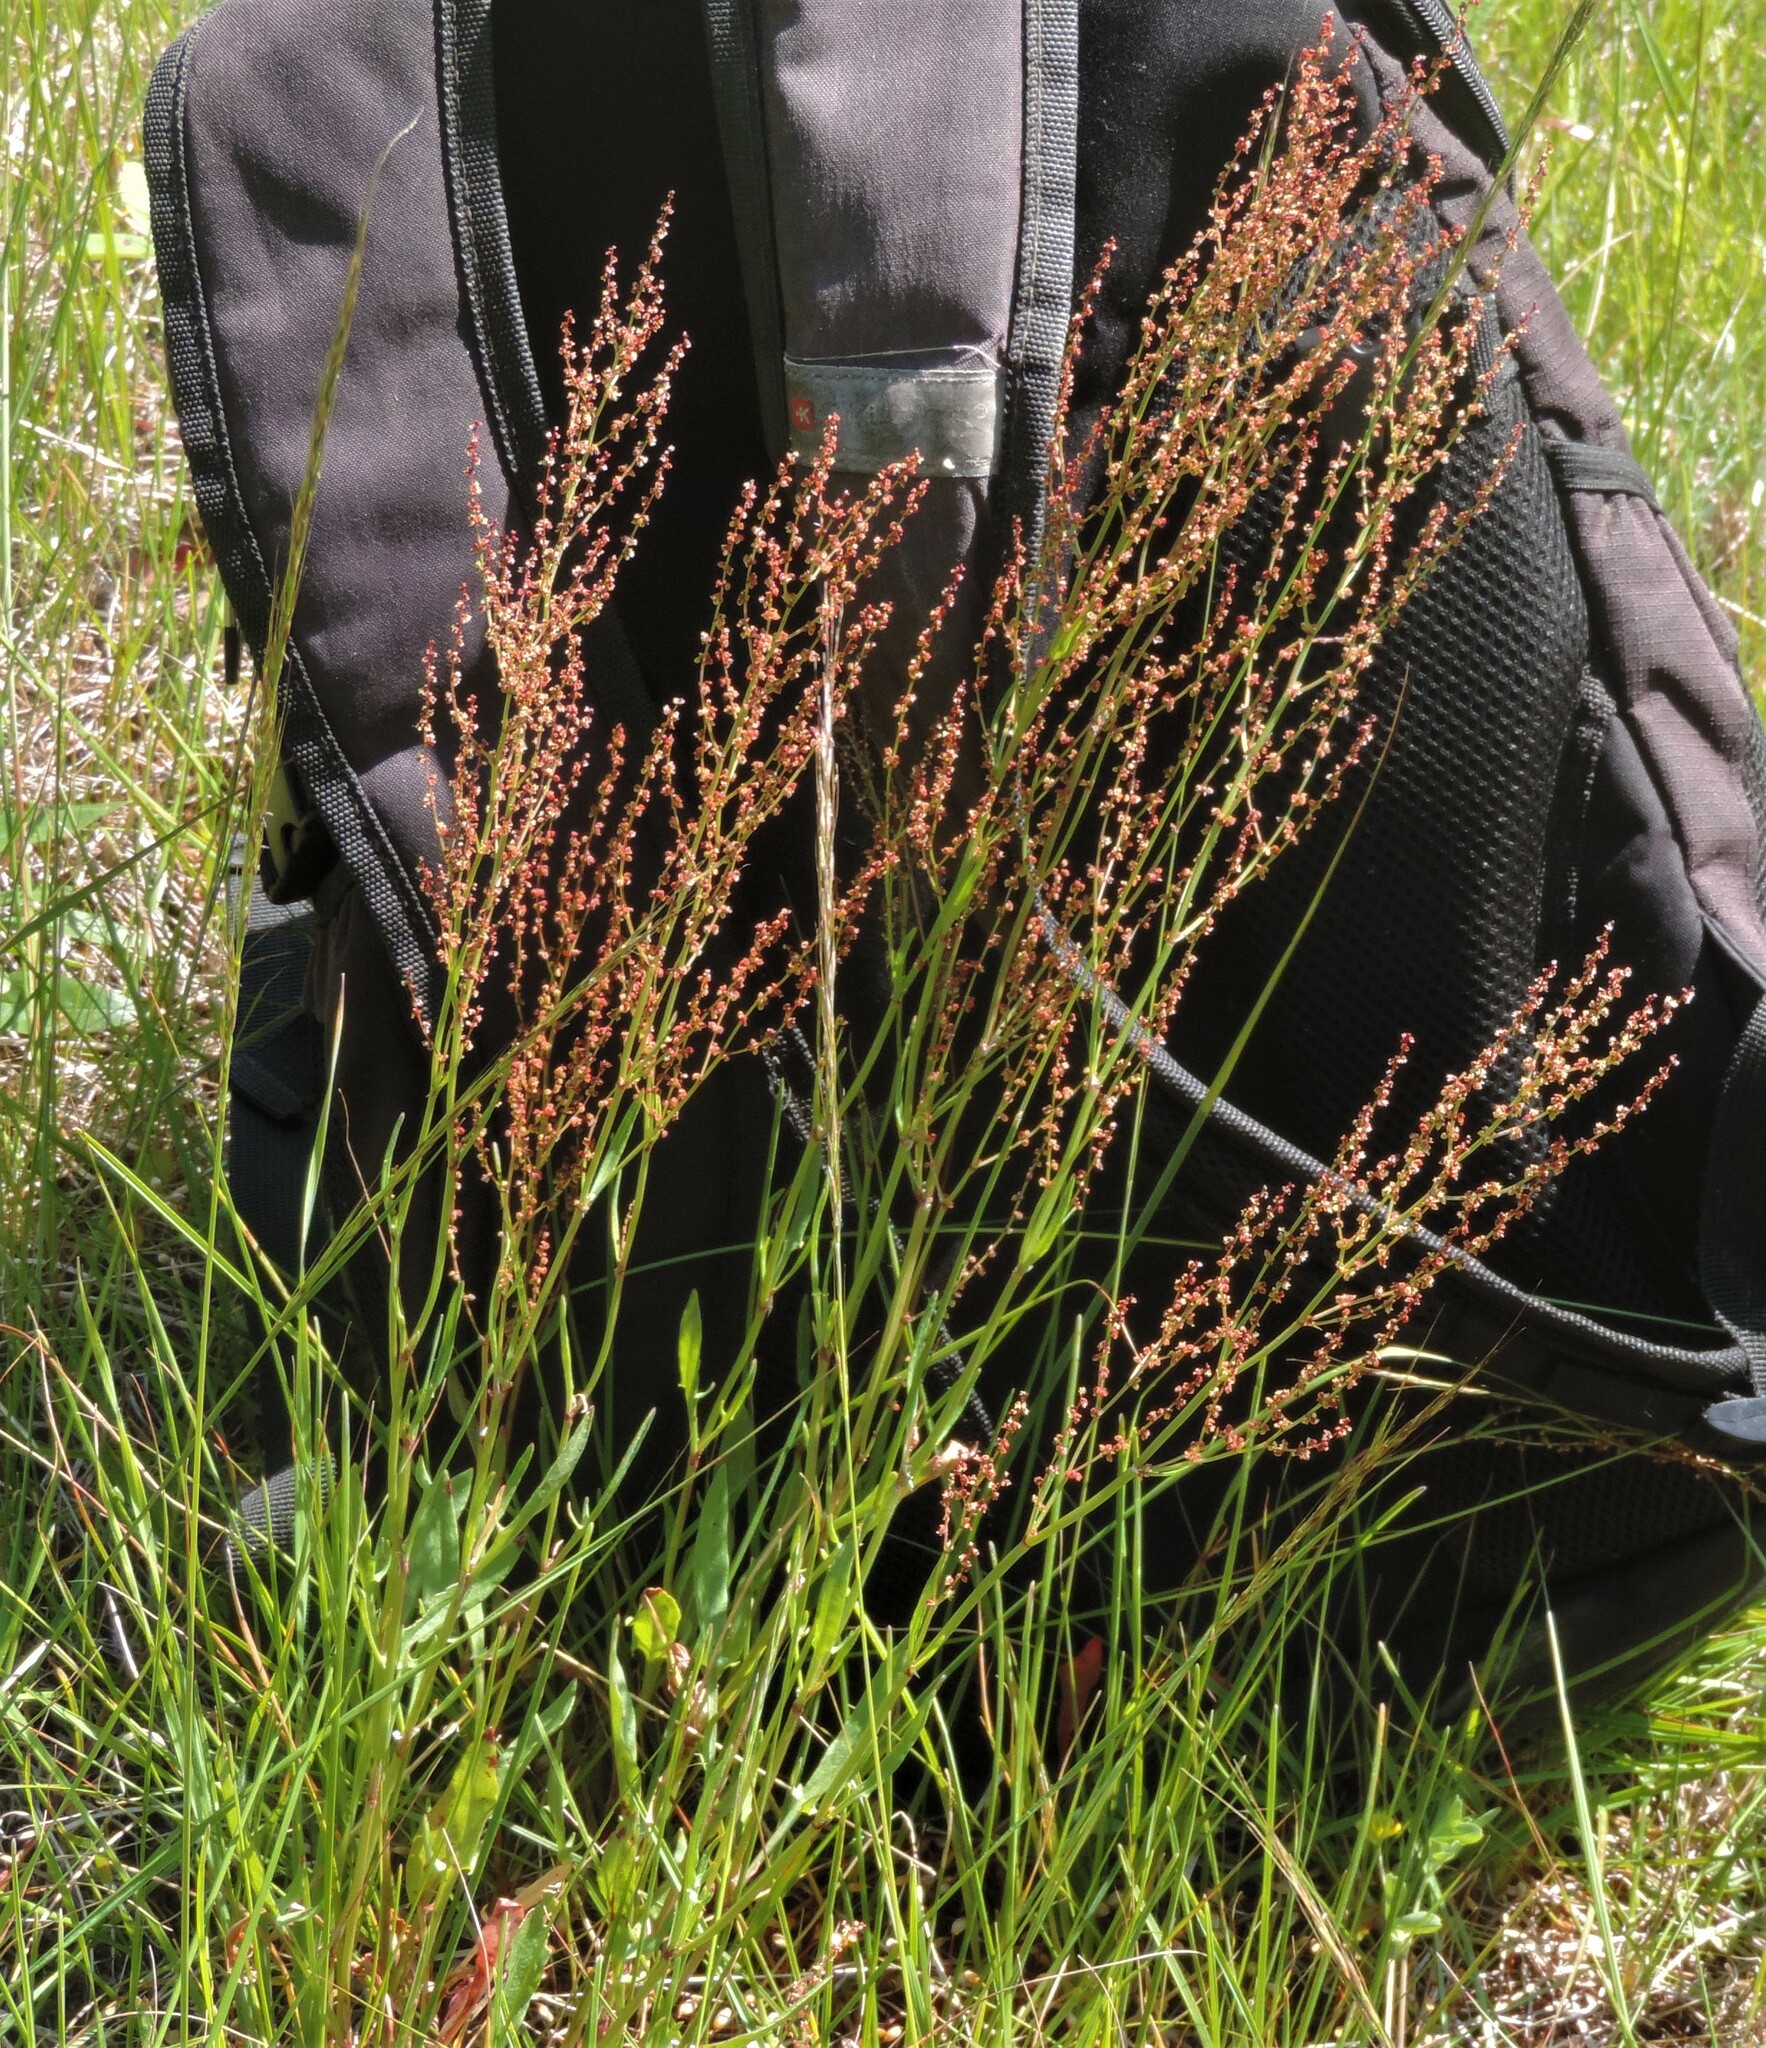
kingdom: Plantae
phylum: Tracheophyta
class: Magnoliopsida
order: Caryophyllales
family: Polygonaceae
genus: Rumex
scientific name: Rumex acetosella
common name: Common sheep sorrel
